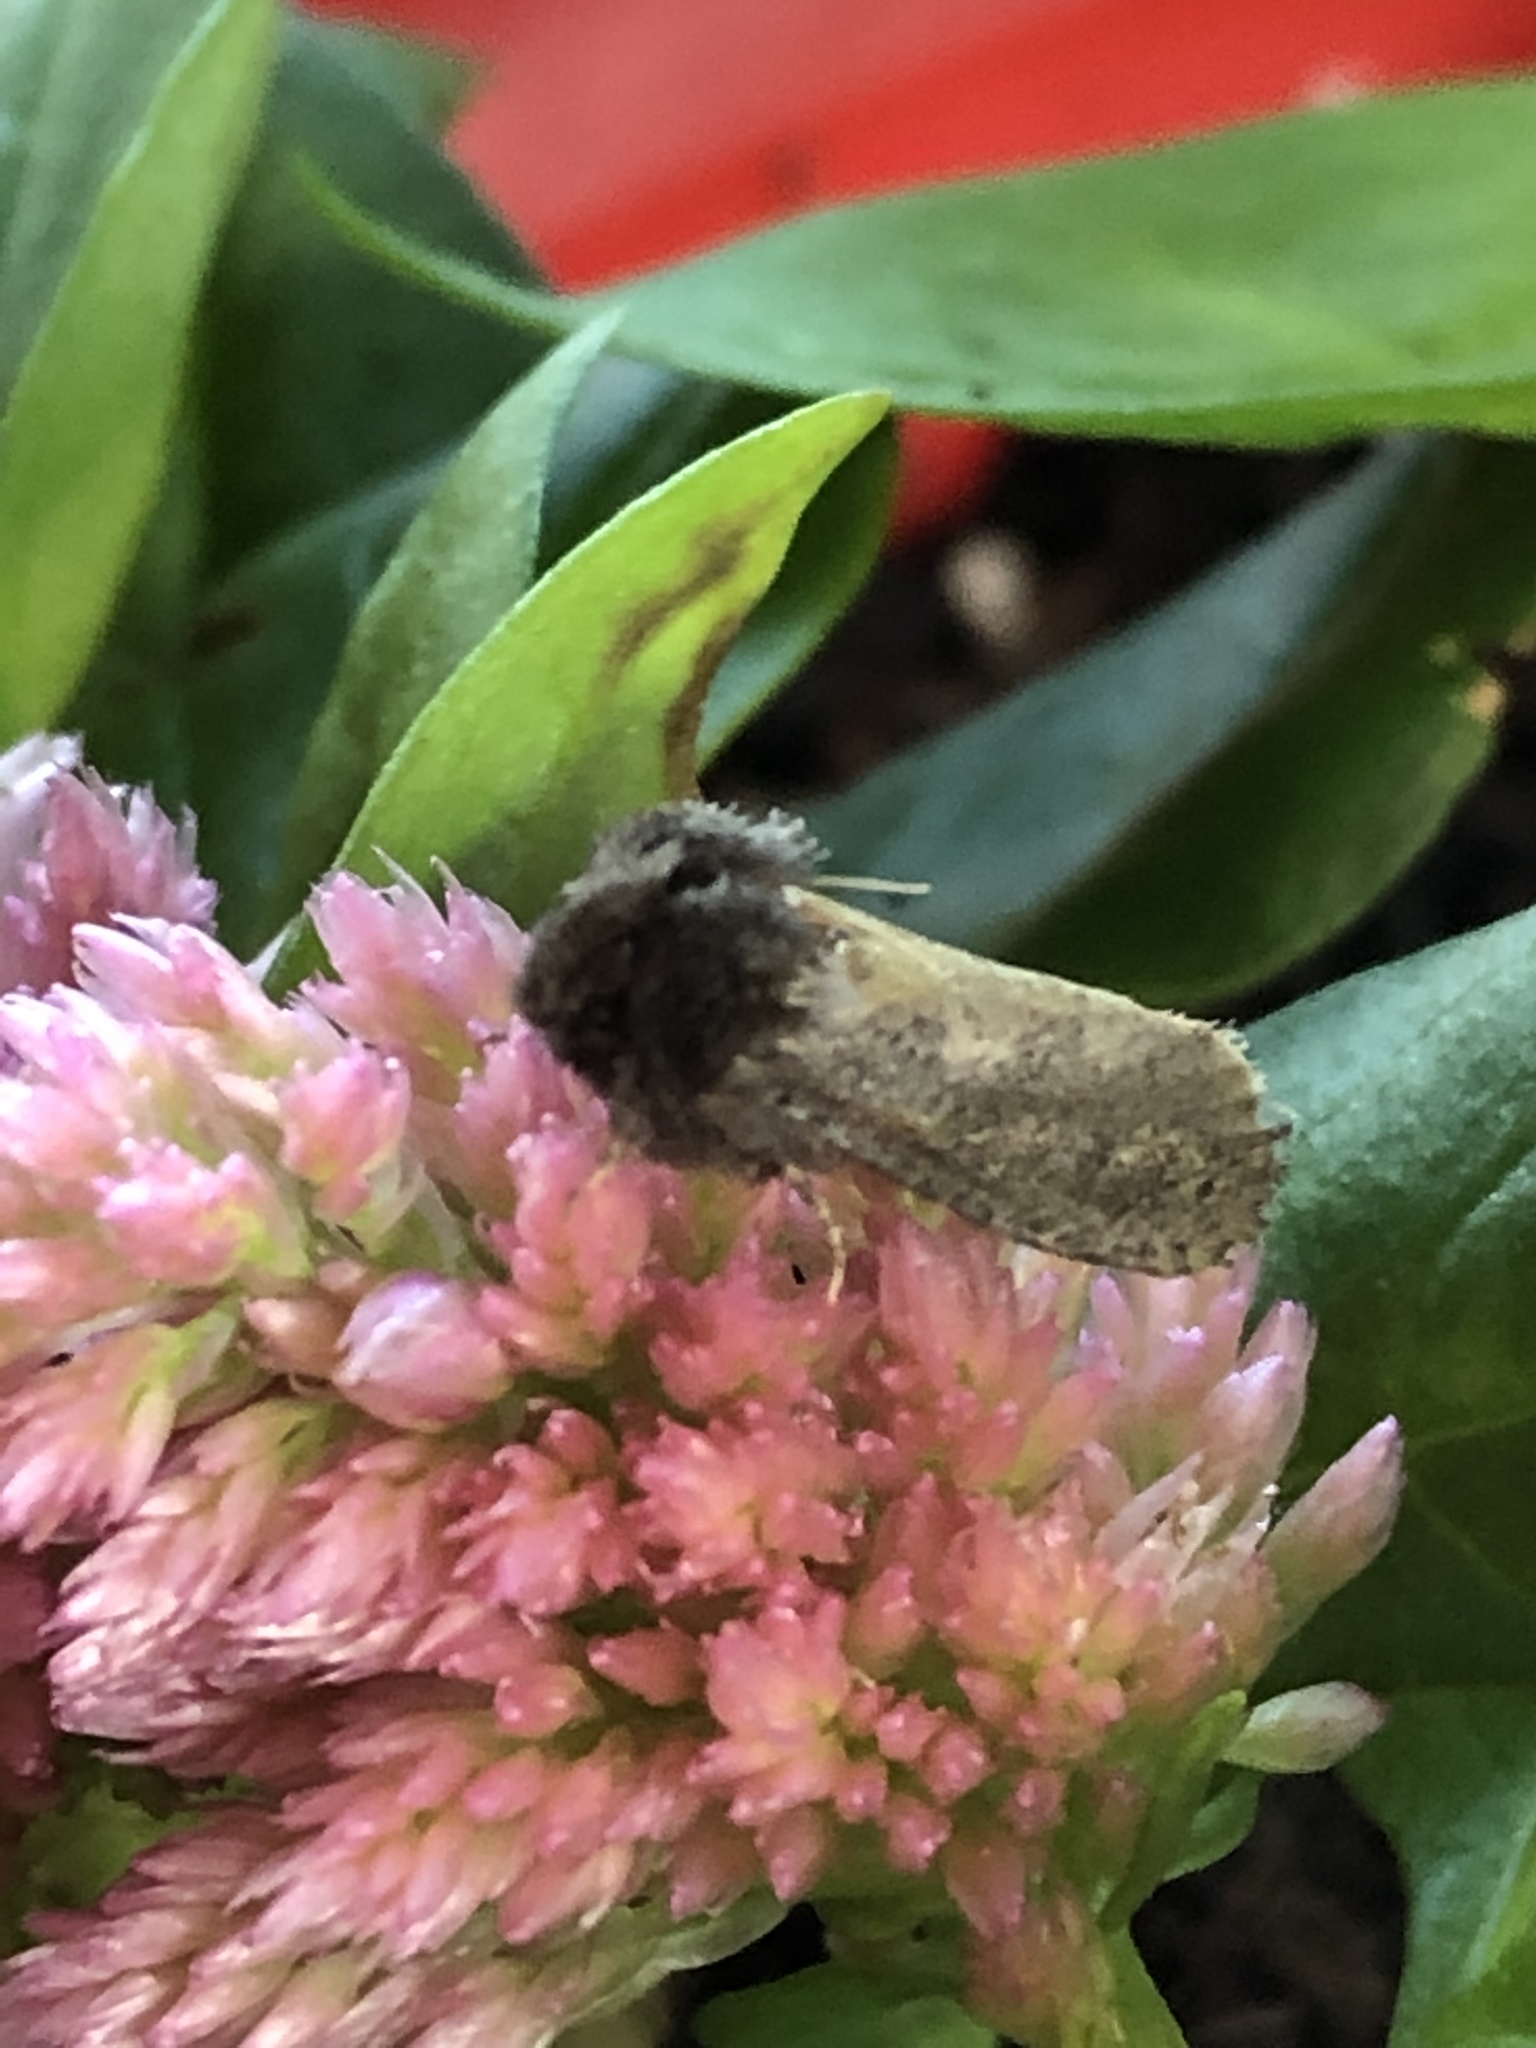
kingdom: Animalia
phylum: Arthropoda
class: Insecta
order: Lepidoptera
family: Tineidae
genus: Acrolophus
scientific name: Acrolophus arcanella
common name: Arcane grass tubeworm moth
